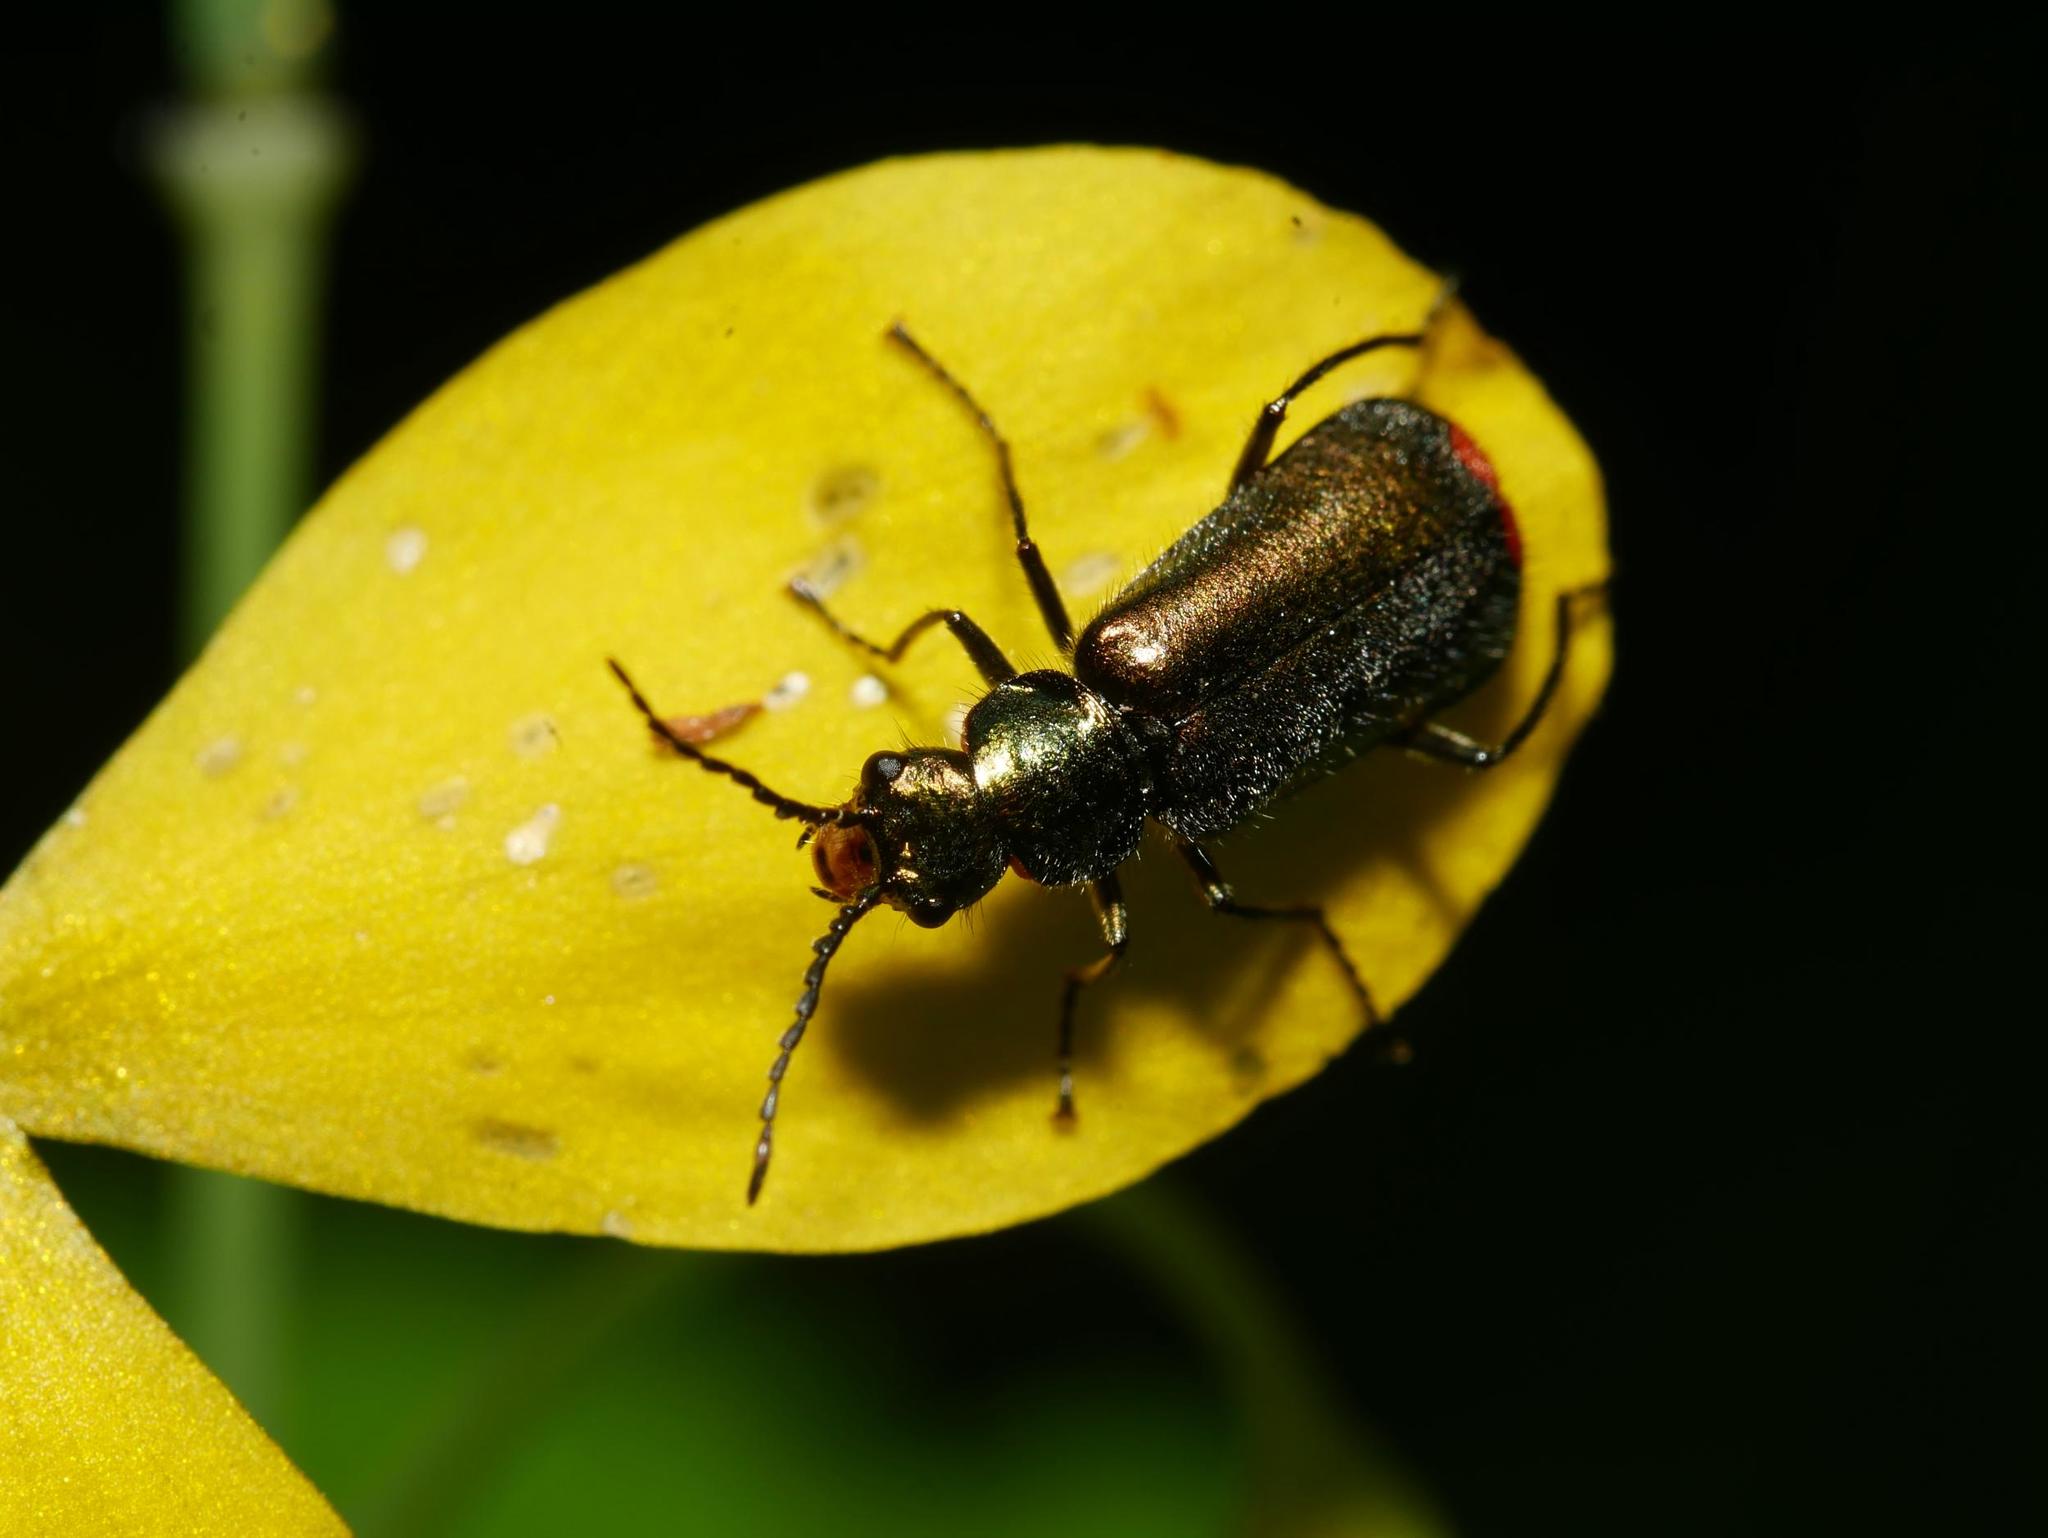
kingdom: Animalia
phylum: Arthropoda
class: Insecta
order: Coleoptera
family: Melyridae
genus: Malachius
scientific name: Malachius bipustulatus
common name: Malachite beetle
